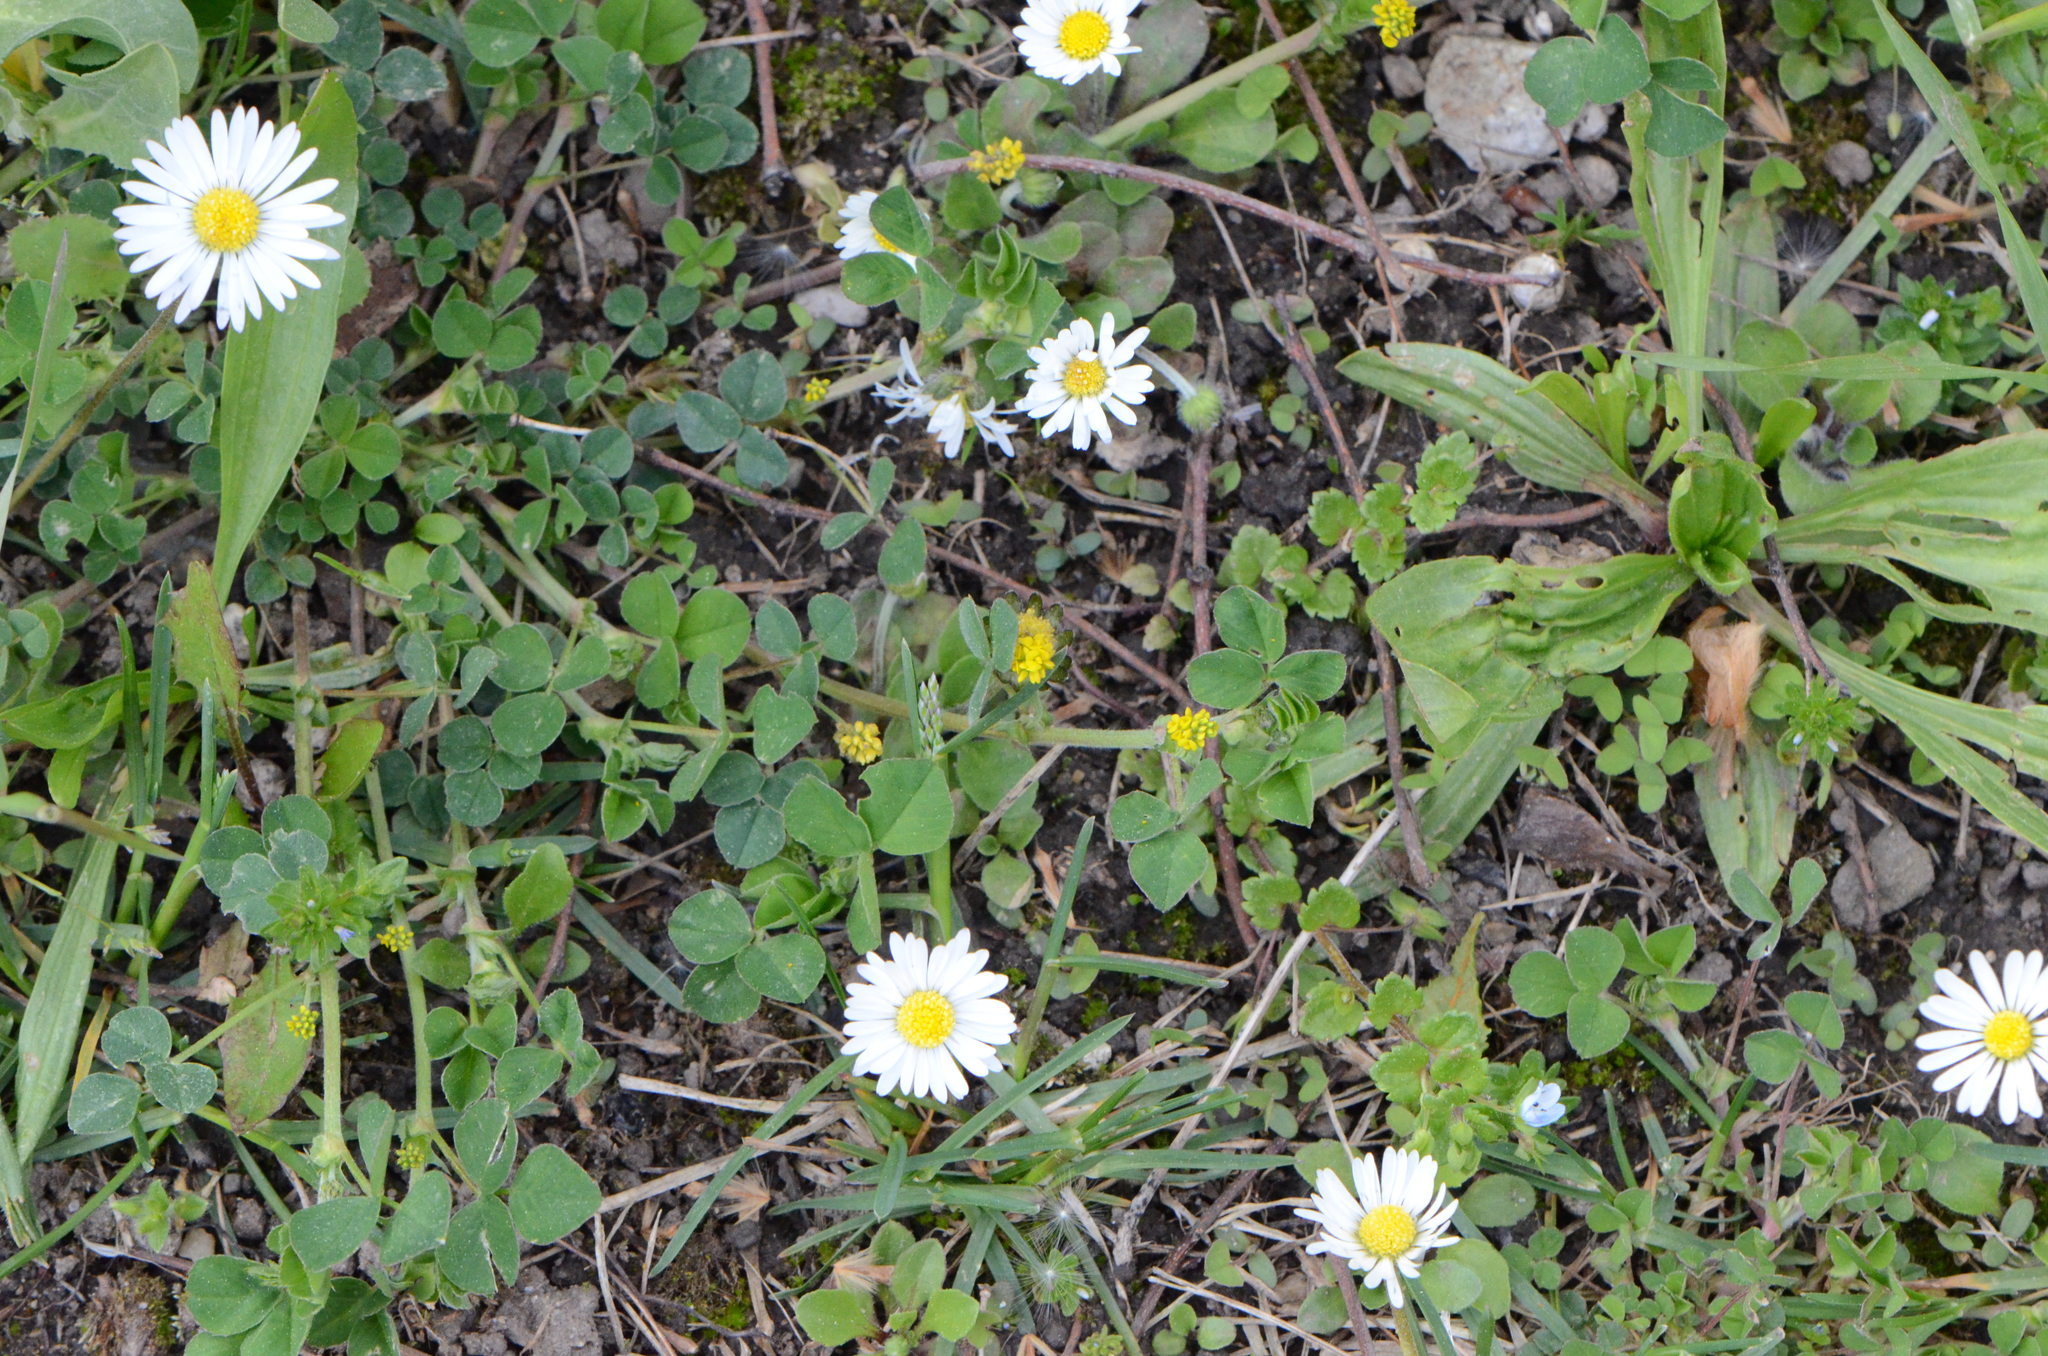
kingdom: Plantae
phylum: Tracheophyta
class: Magnoliopsida
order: Fabales
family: Fabaceae
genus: Medicago
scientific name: Medicago lupulina
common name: Black medick
